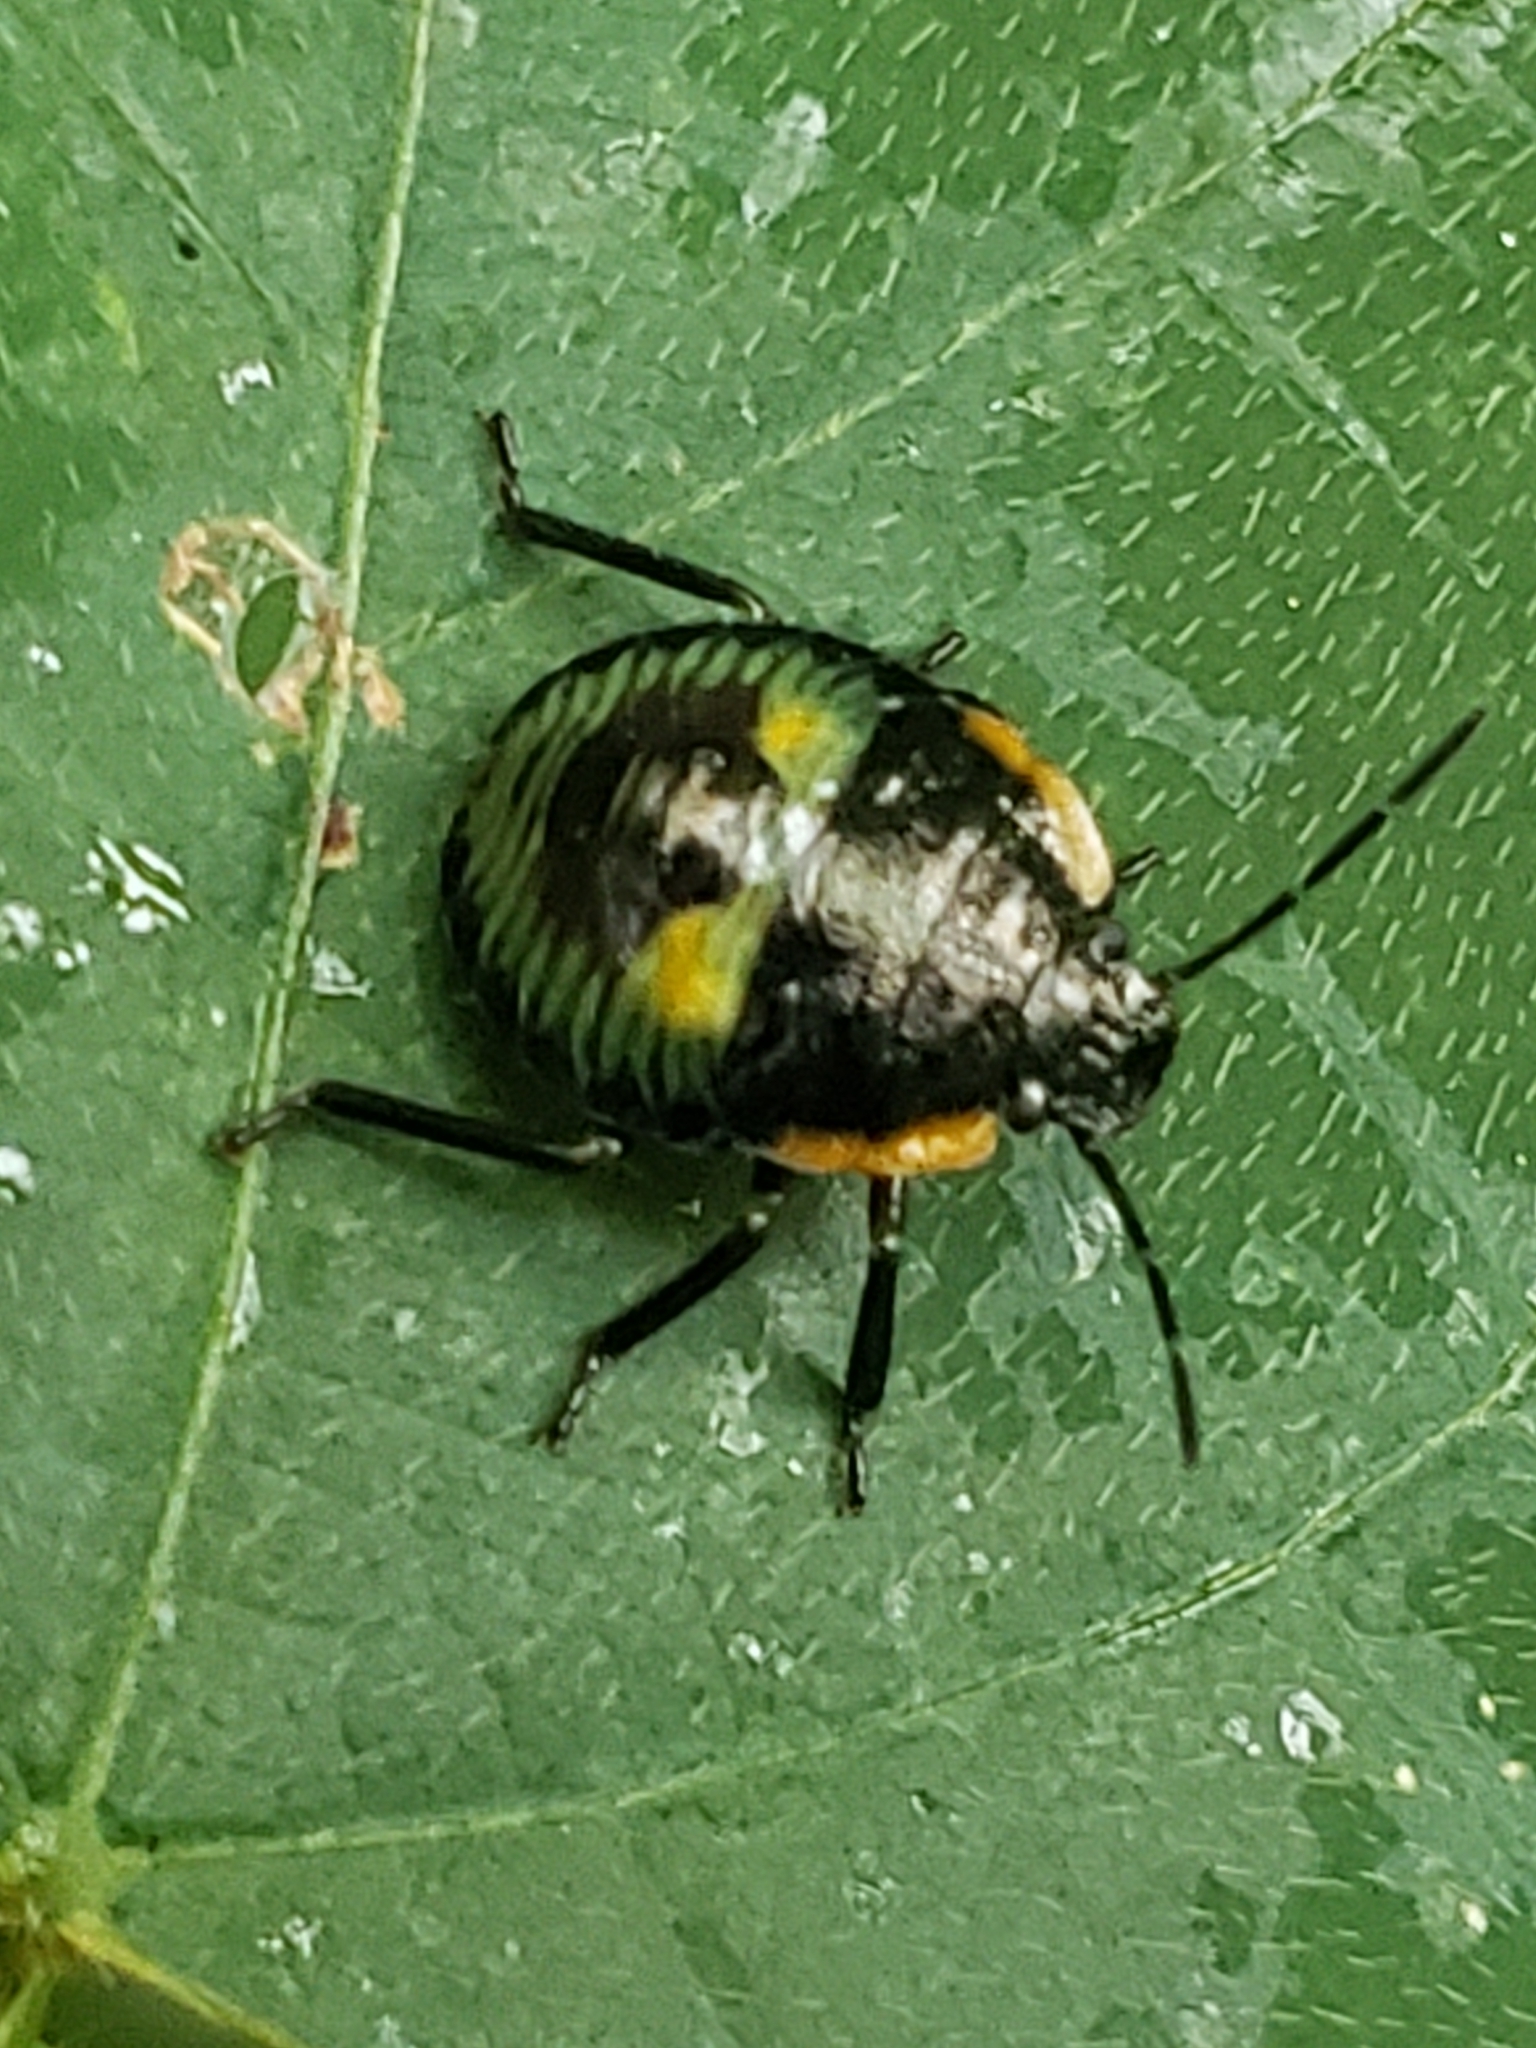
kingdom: Animalia
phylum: Arthropoda
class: Insecta
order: Hemiptera
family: Pentatomidae
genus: Chinavia
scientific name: Chinavia hilaris
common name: Green stink bug
